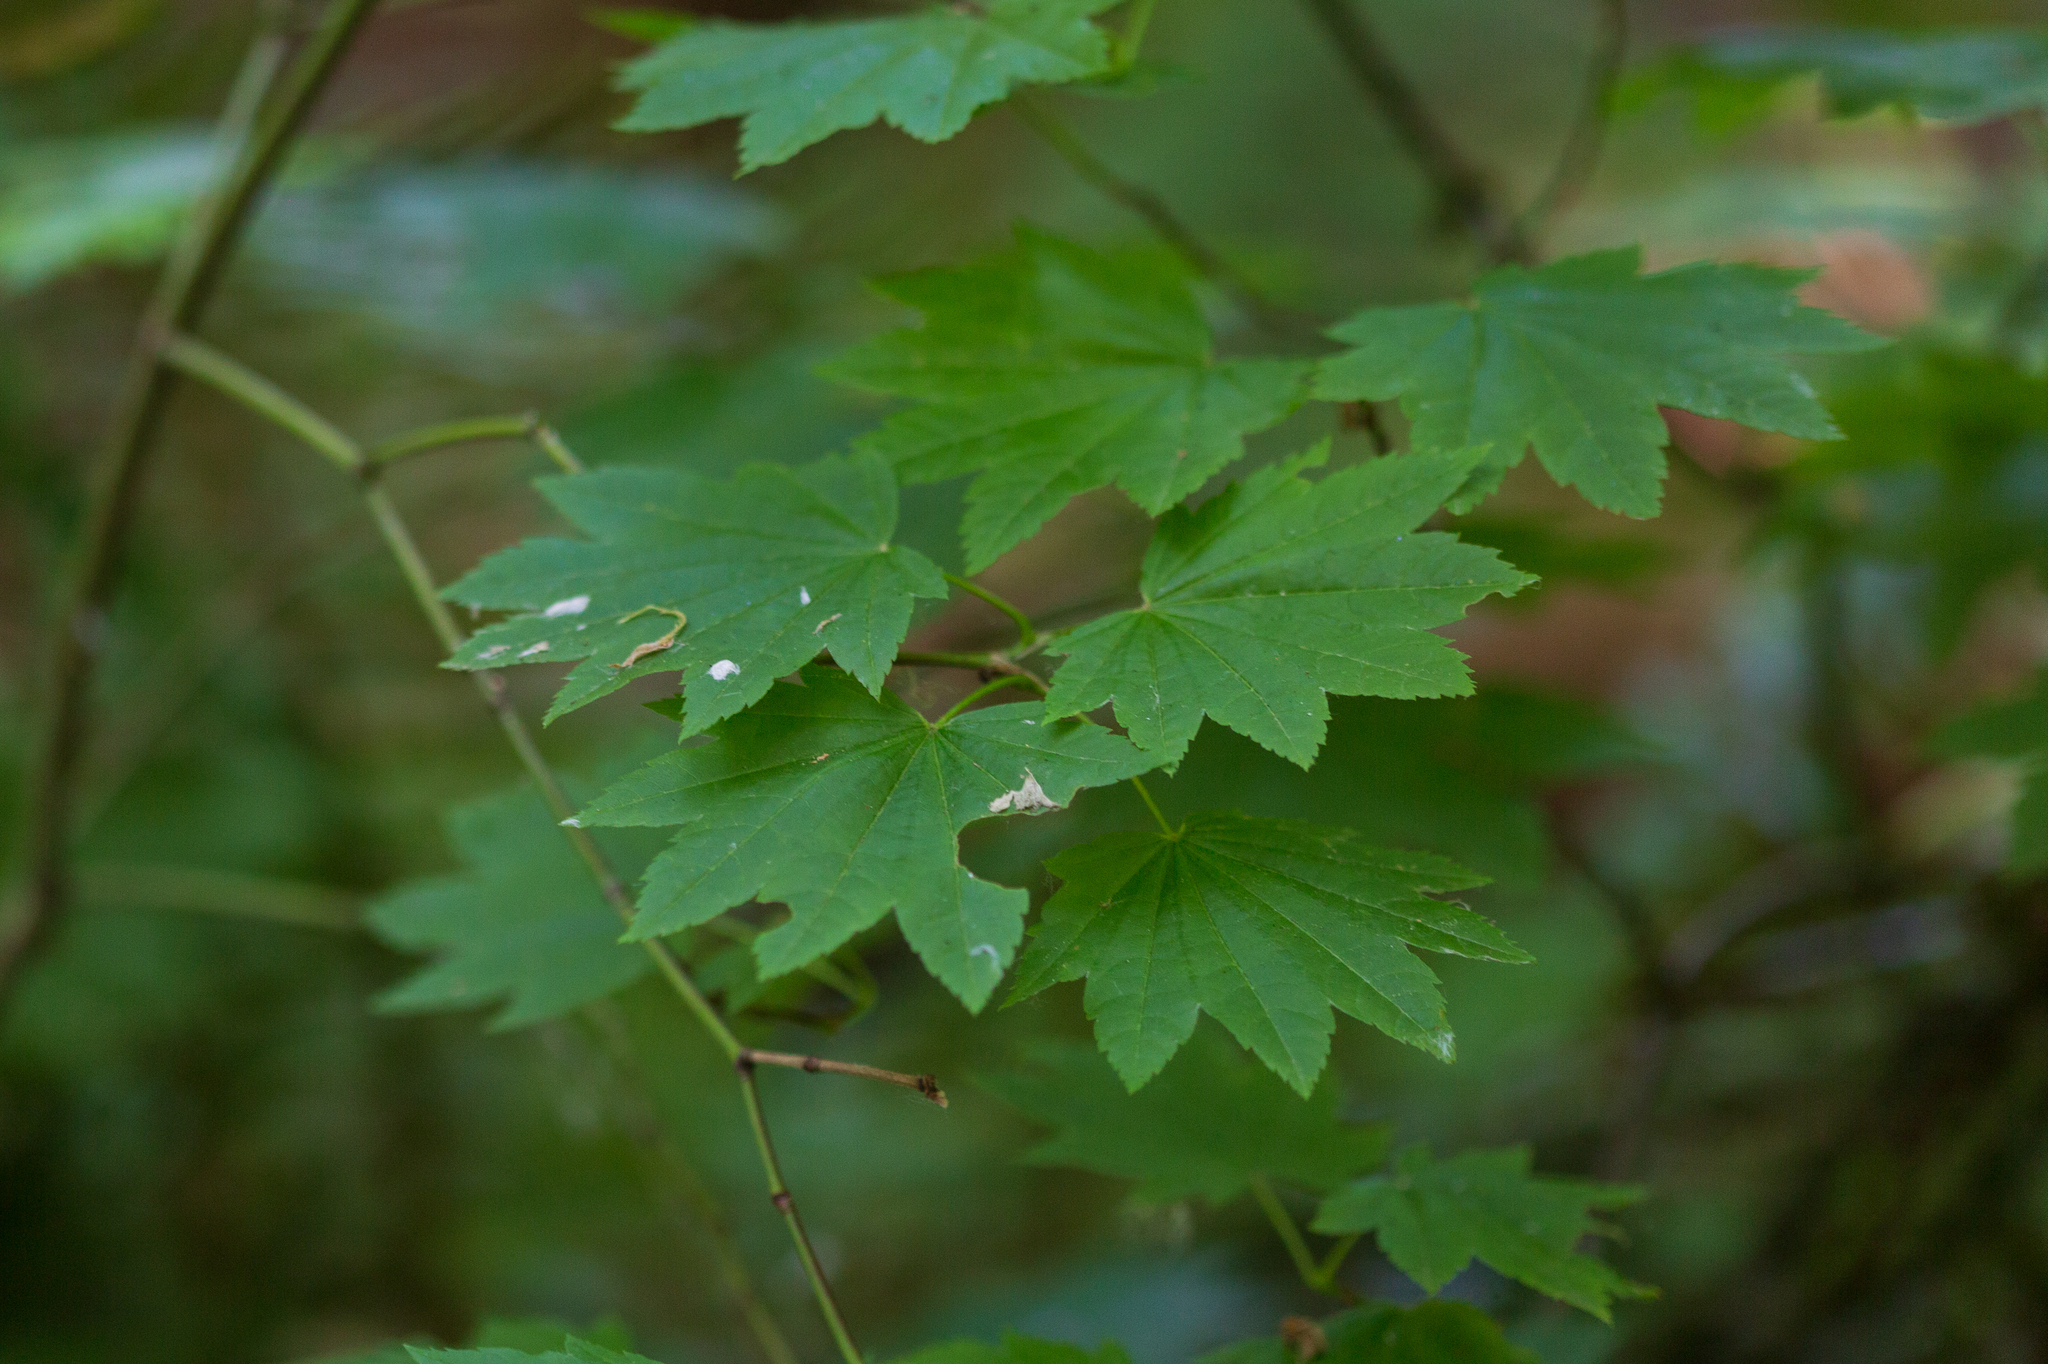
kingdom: Plantae
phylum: Tracheophyta
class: Magnoliopsida
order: Sapindales
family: Sapindaceae
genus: Acer
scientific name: Acer circinatum
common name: Vine maple
